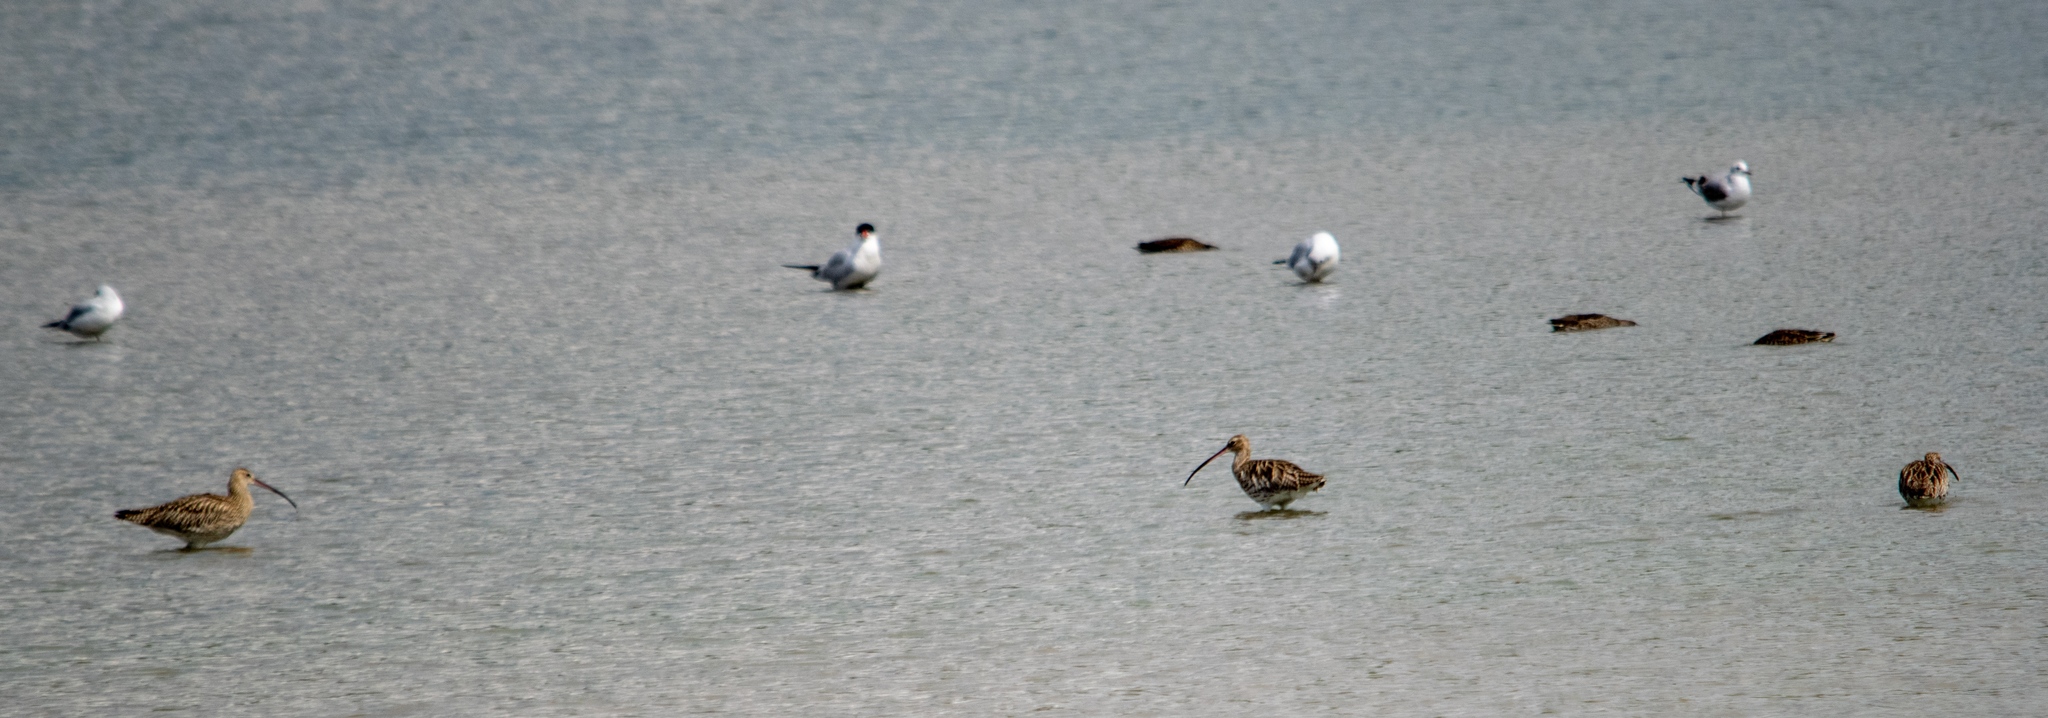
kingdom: Animalia
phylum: Chordata
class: Aves
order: Charadriiformes
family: Scolopacidae
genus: Numenius
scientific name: Numenius arquata
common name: Eurasian curlew
